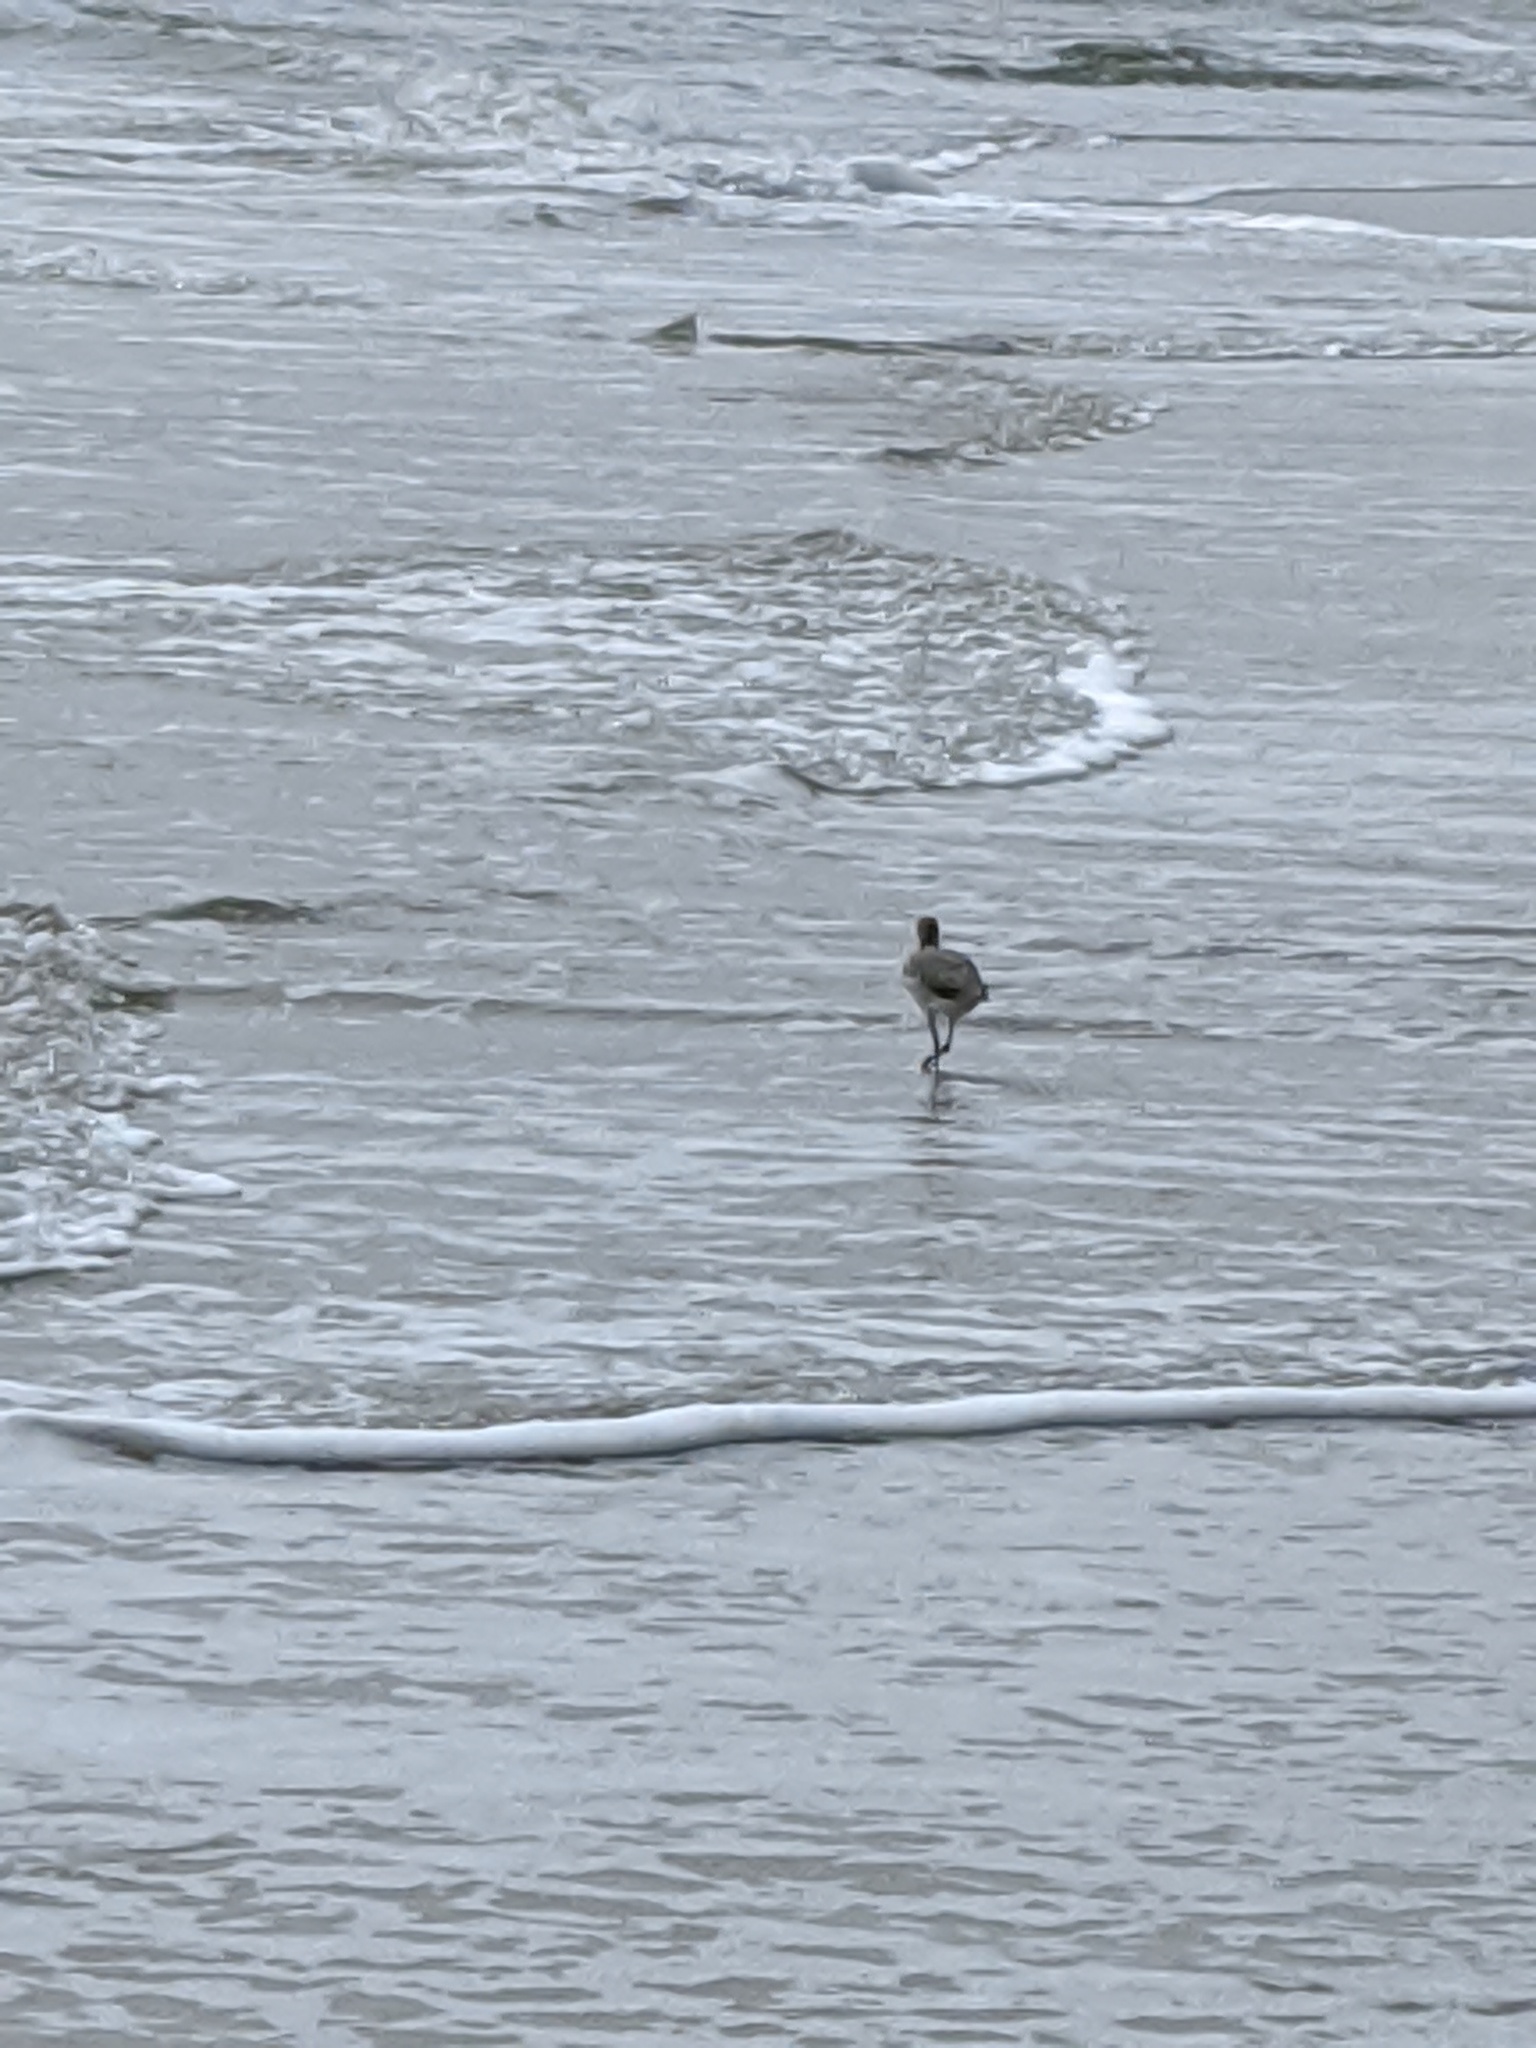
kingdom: Animalia
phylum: Chordata
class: Aves
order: Charadriiformes
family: Scolopacidae
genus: Tringa
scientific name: Tringa semipalmata
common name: Willet
